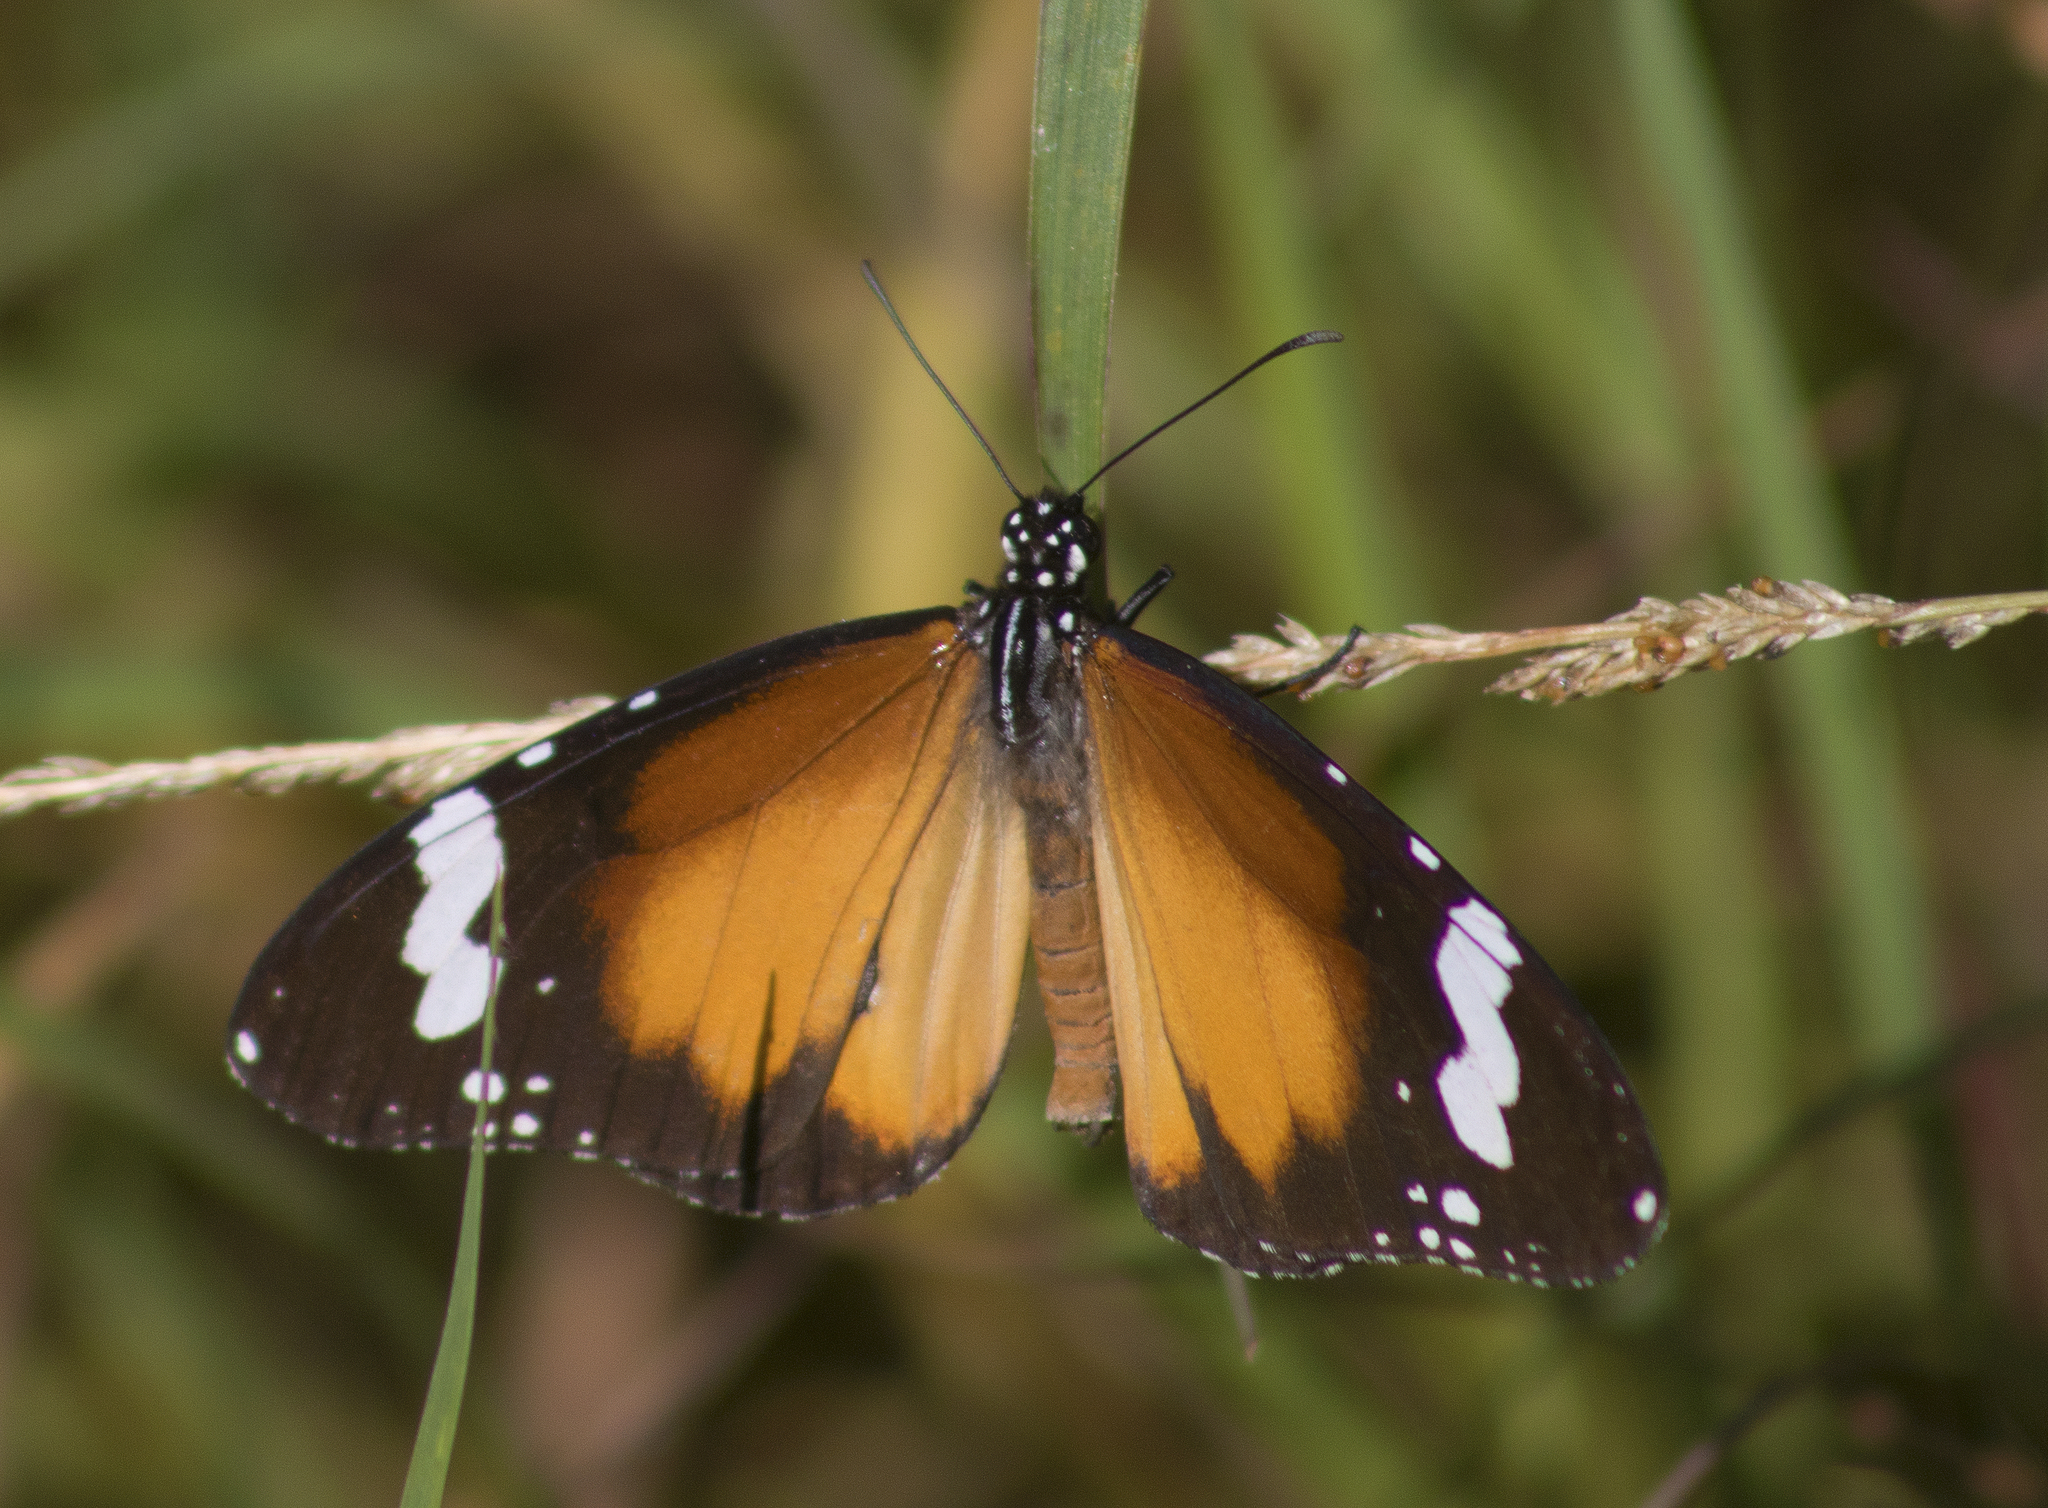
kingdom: Animalia
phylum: Arthropoda
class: Insecta
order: Lepidoptera
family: Nymphalidae
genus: Danaus
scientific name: Danaus chrysippus
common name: Plain tiger
